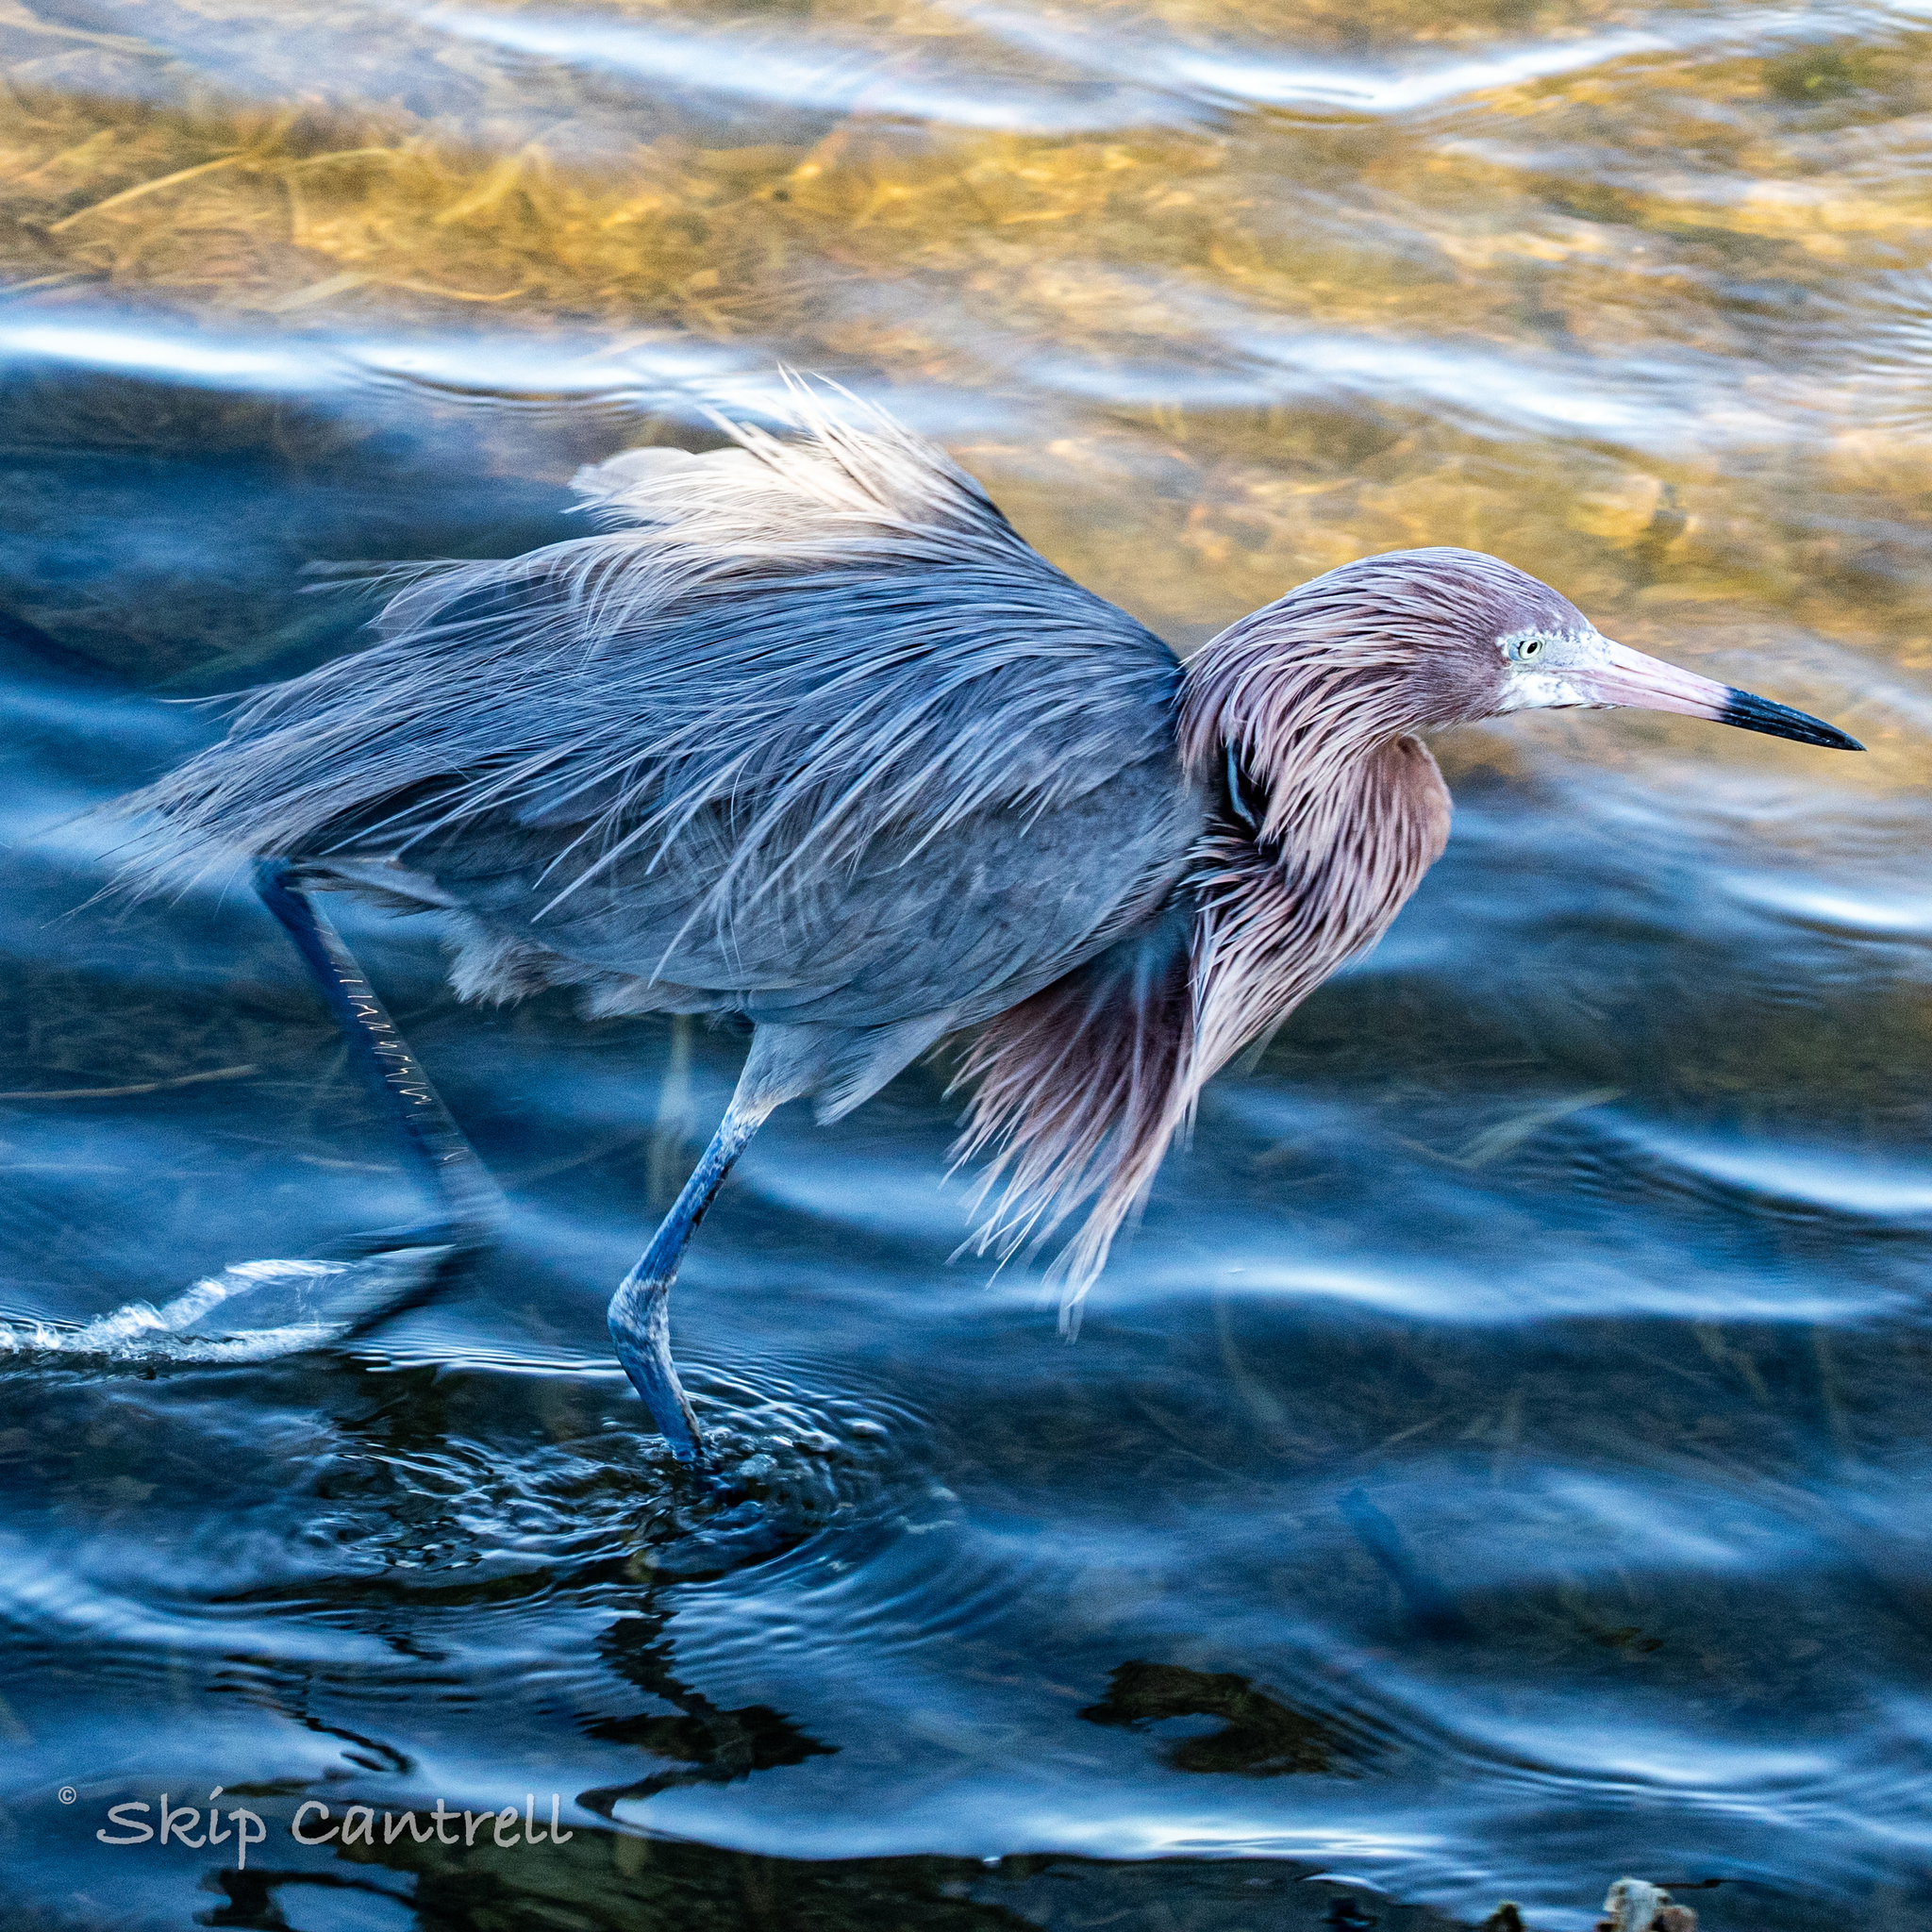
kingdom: Animalia
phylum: Chordata
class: Aves
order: Pelecaniformes
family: Ardeidae
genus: Egretta
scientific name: Egretta rufescens
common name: Reddish egret
